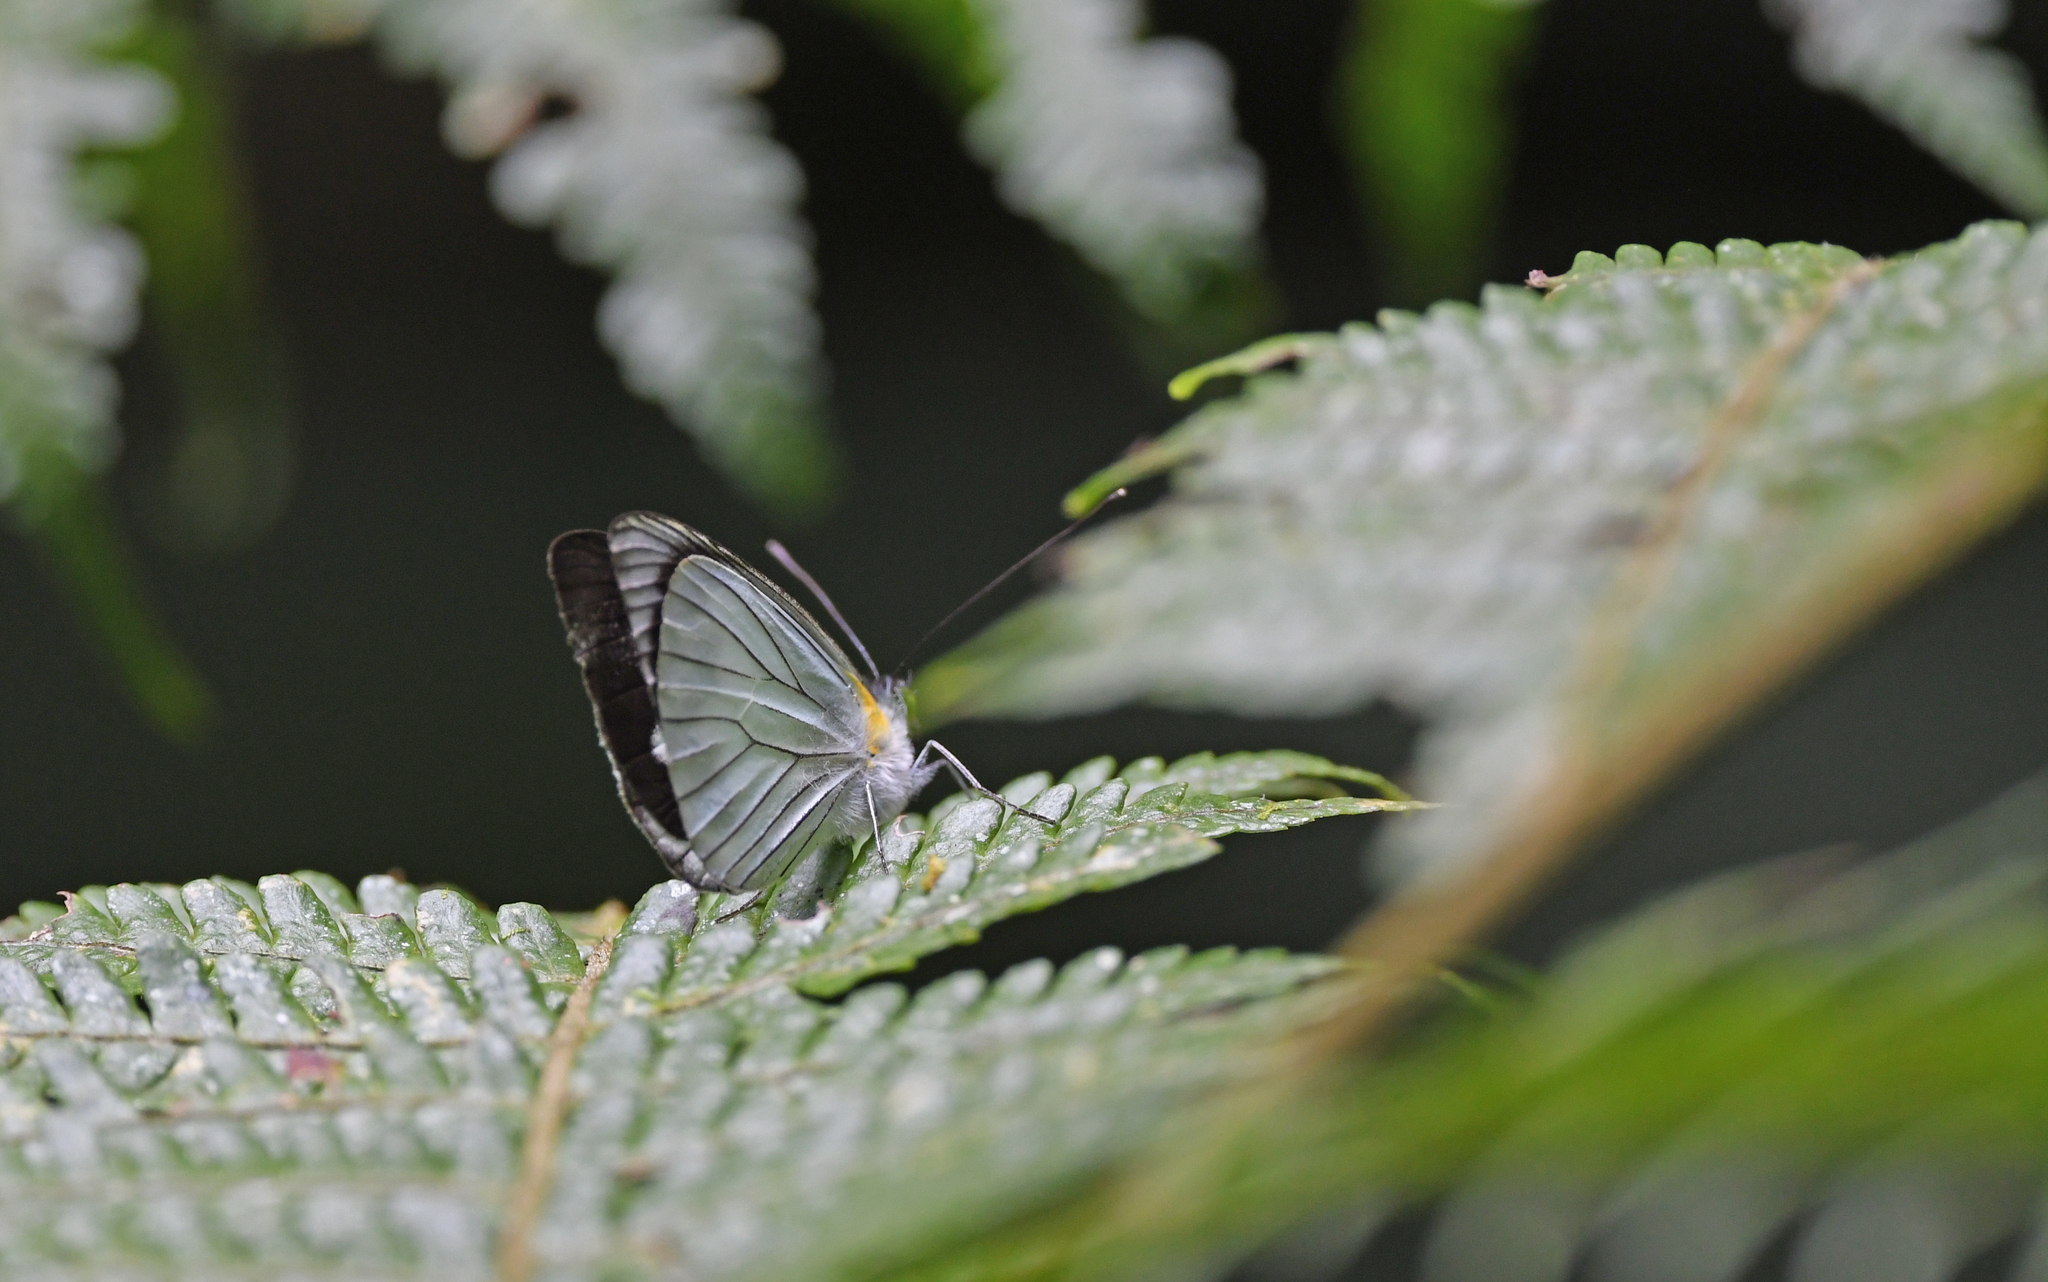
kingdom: Animalia
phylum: Arthropoda
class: Insecta
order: Lepidoptera
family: Pieridae
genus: Leptophobia
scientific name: Leptophobia penthica
